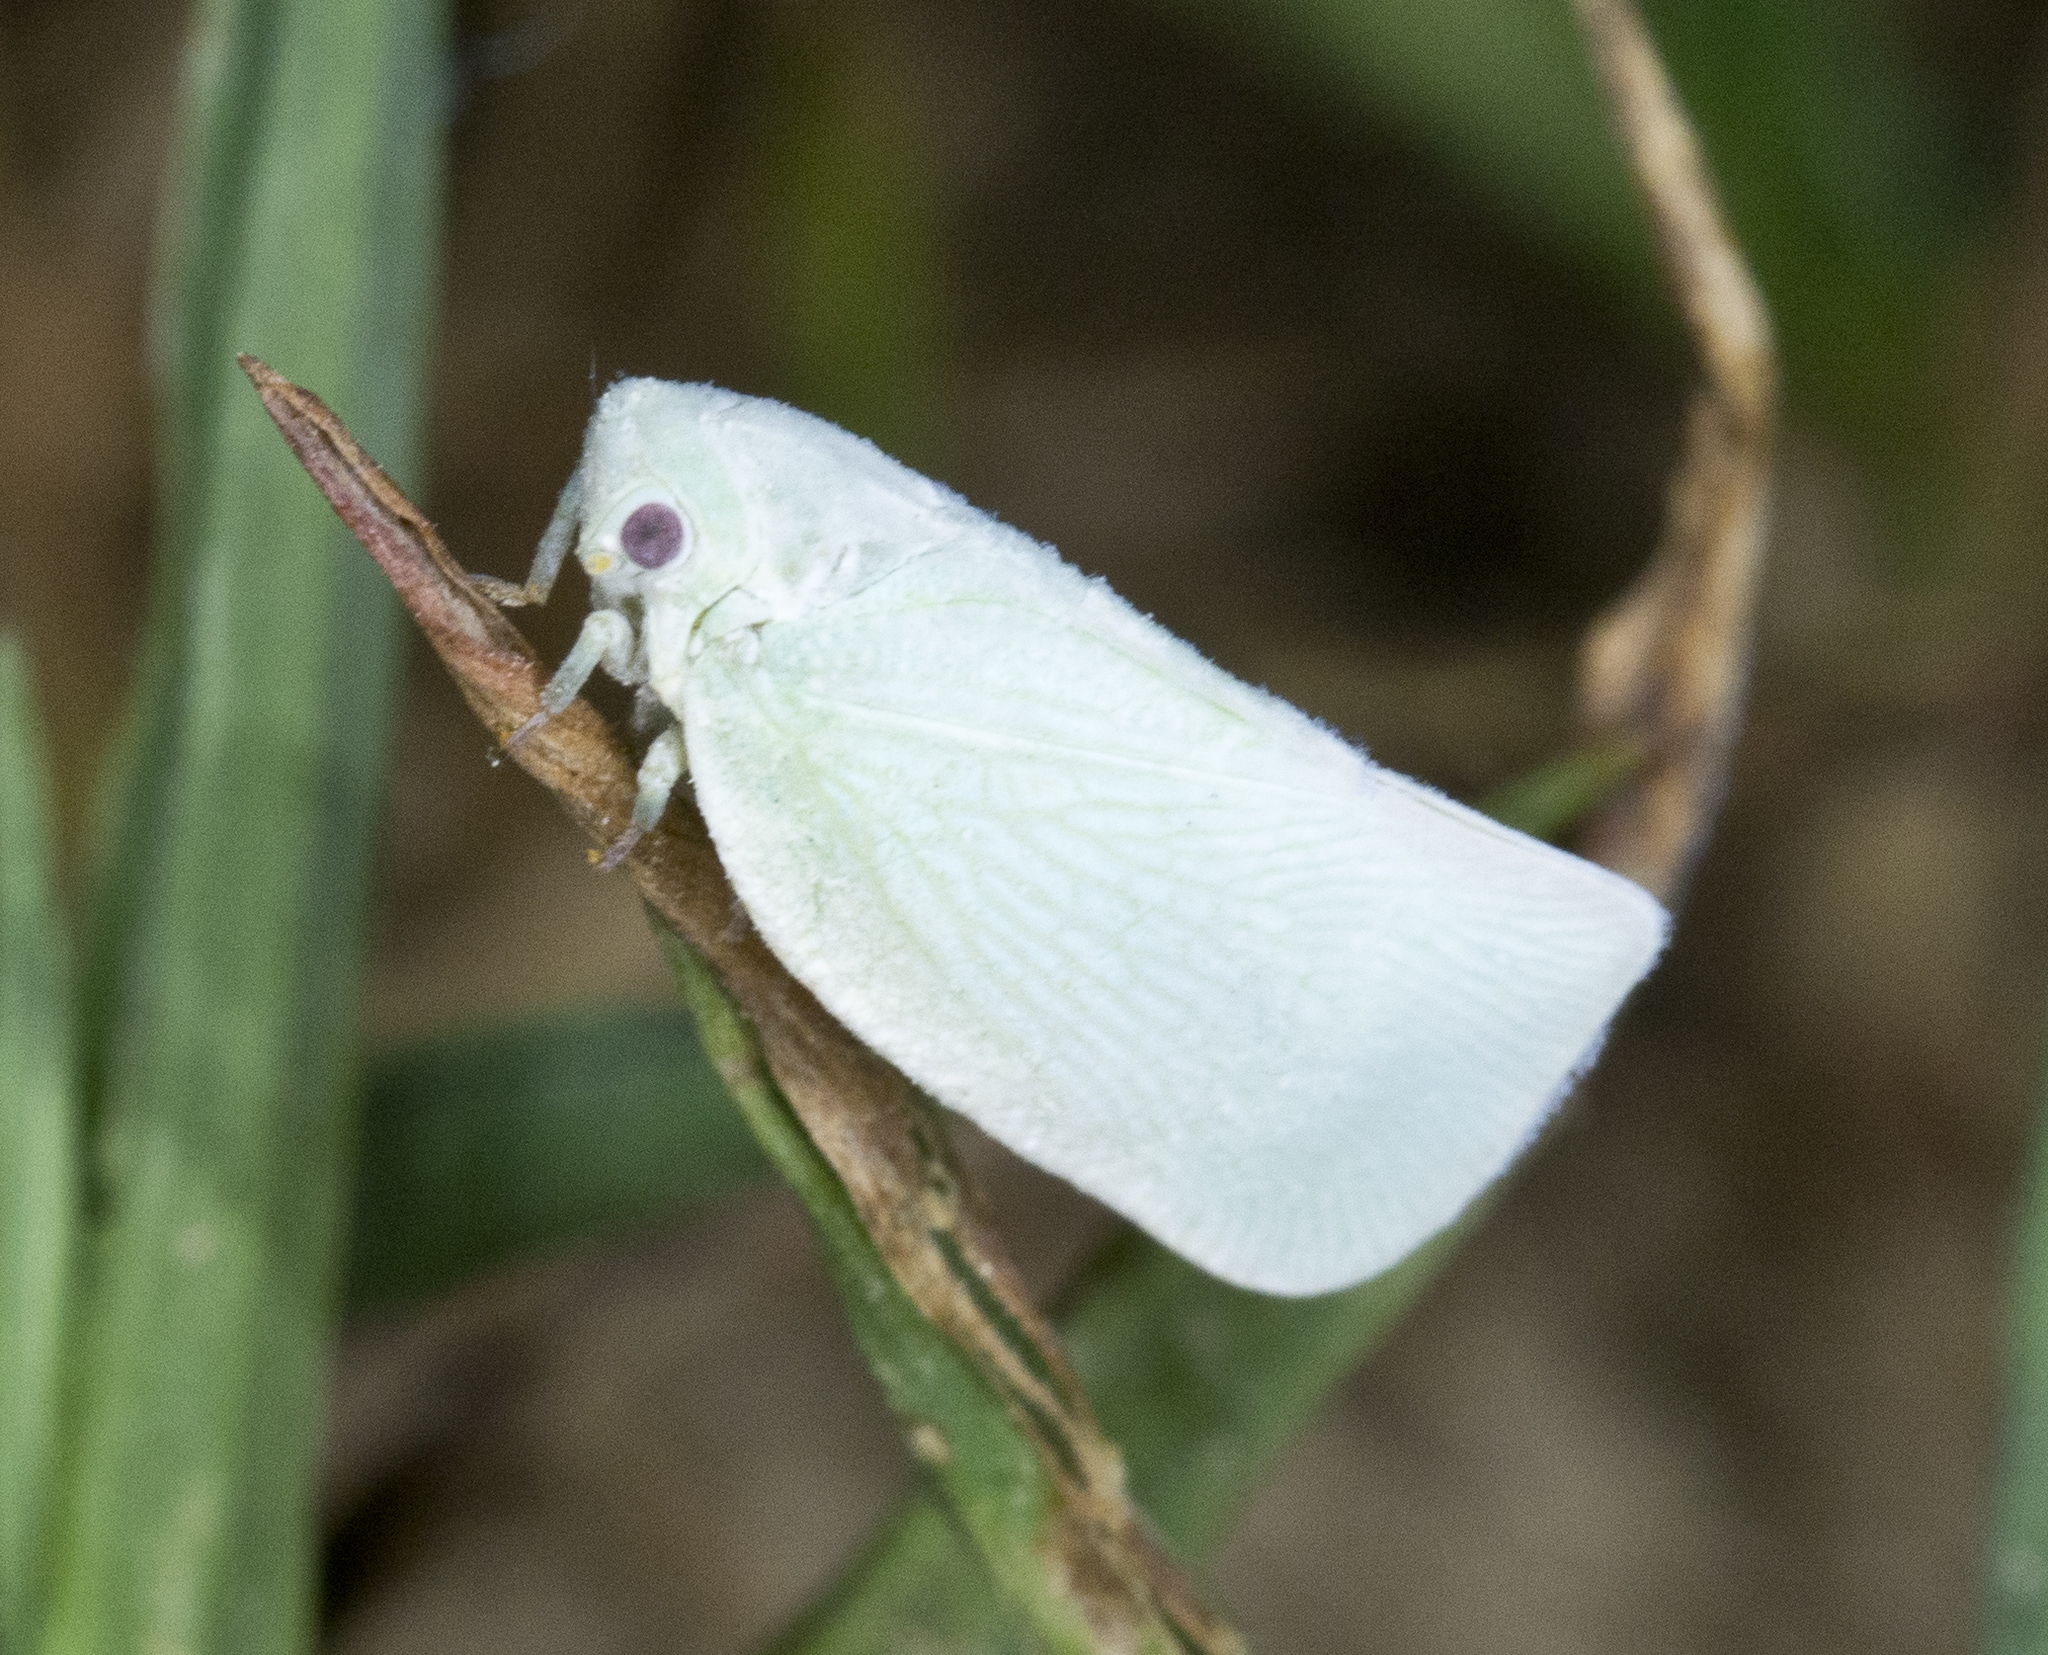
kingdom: Animalia
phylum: Arthropoda
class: Insecta
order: Hemiptera
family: Flatidae
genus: Flatormenis
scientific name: Flatormenis proxima
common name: Northern flatid planthopper
